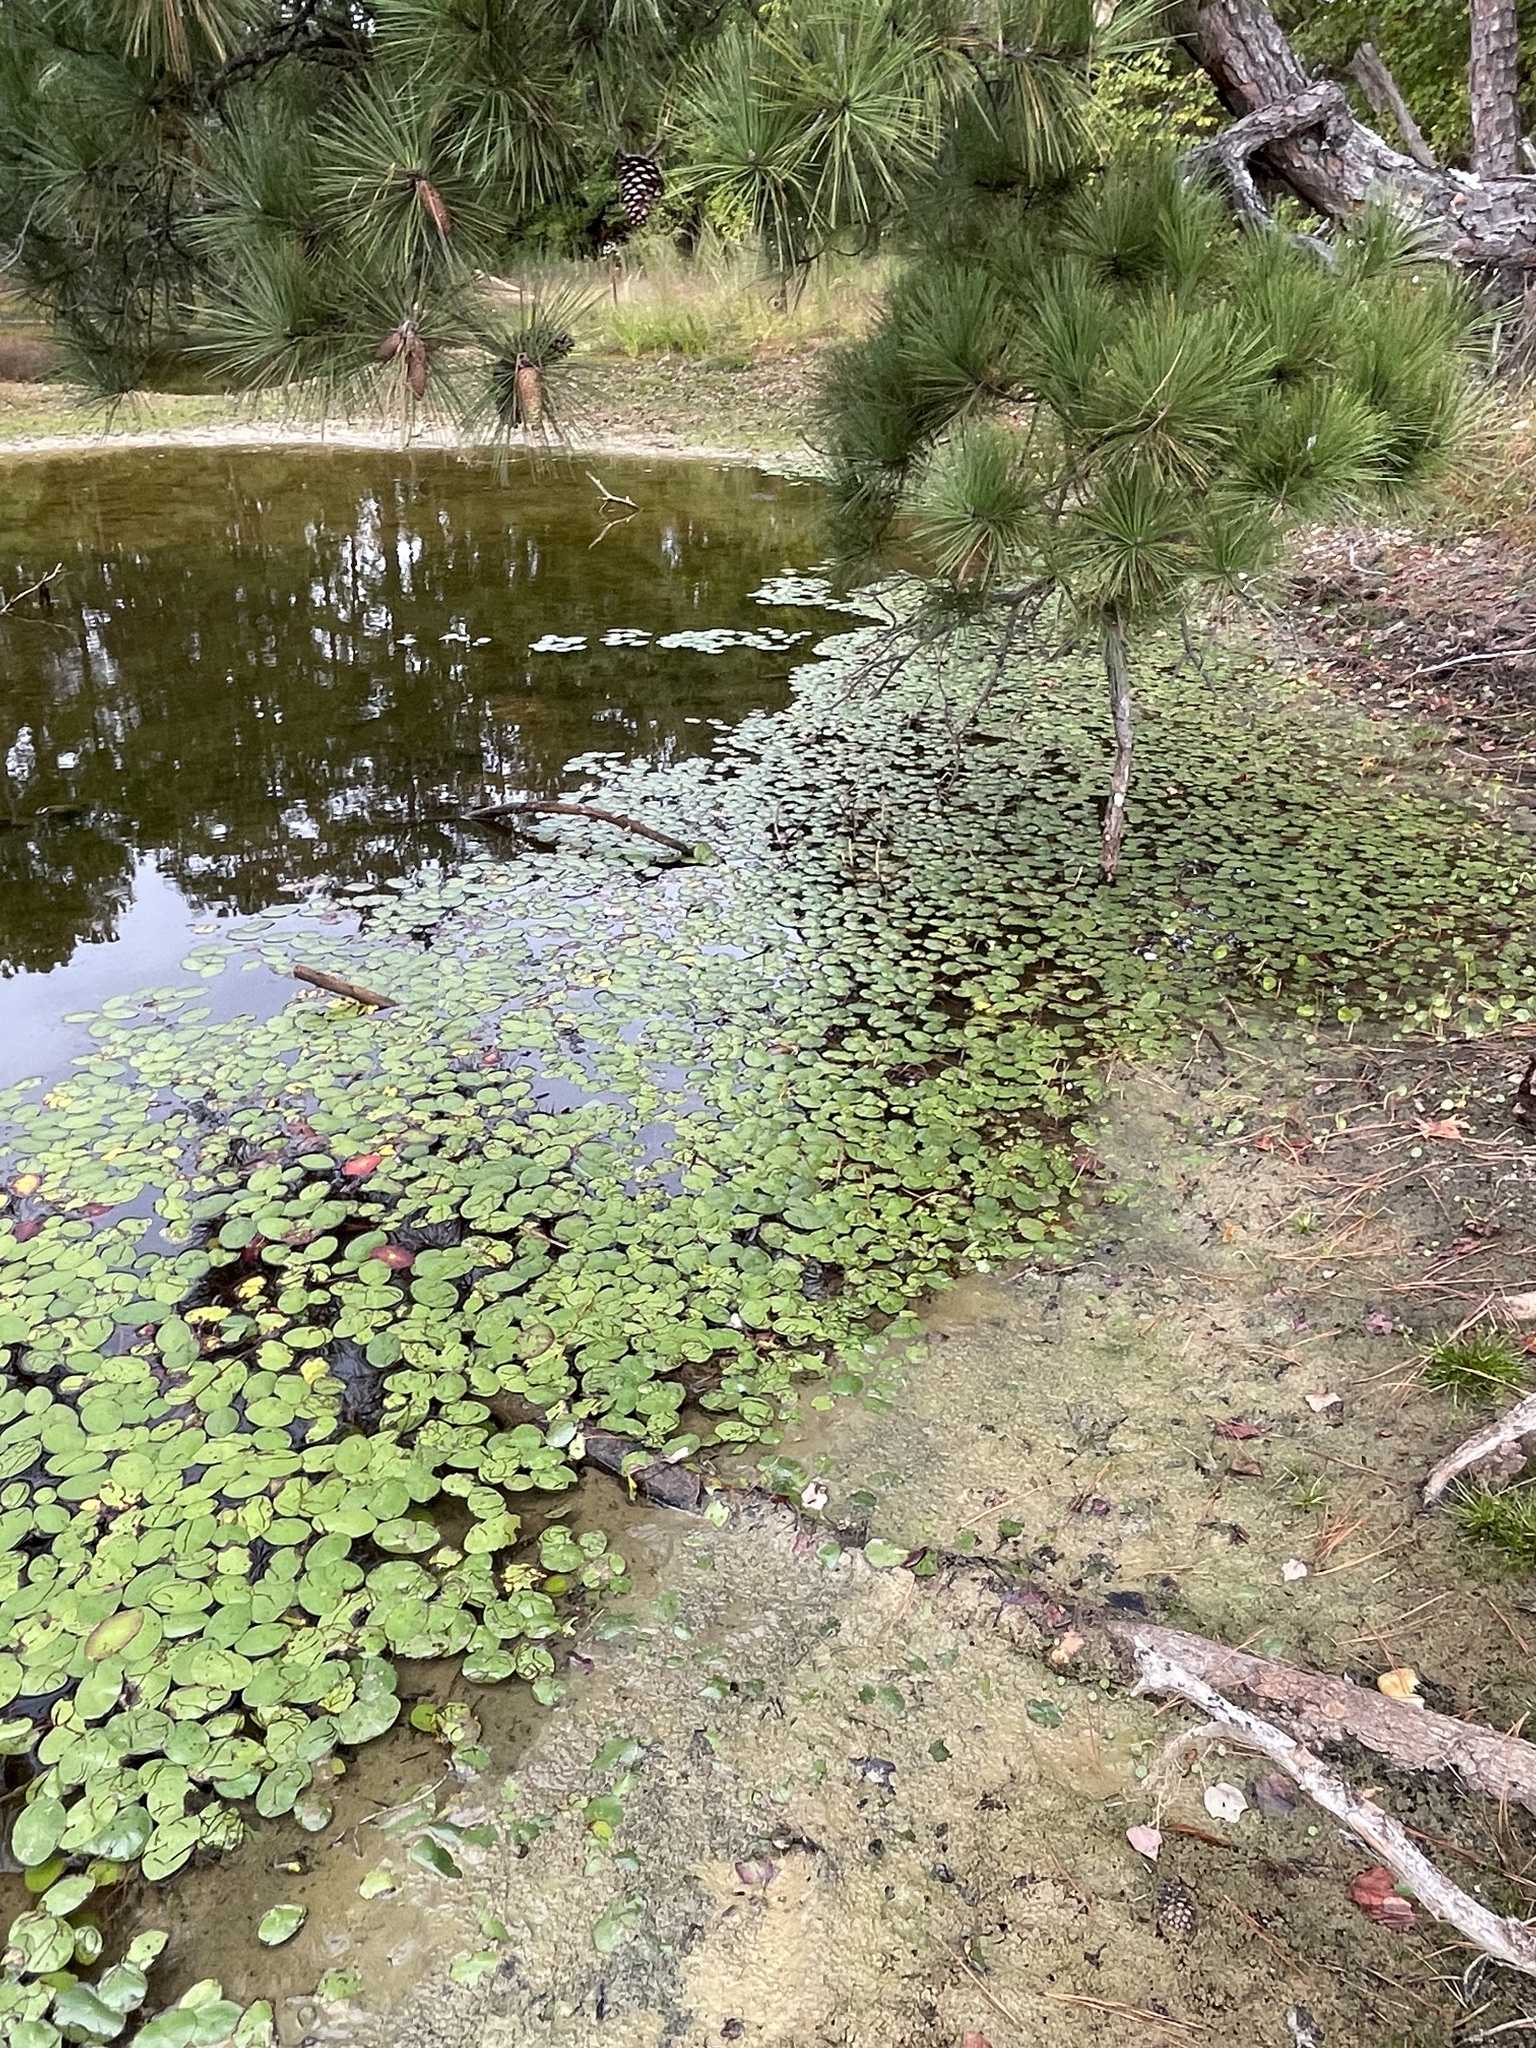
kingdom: Plantae
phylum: Tracheophyta
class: Magnoliopsida
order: Nymphaeales
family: Cabombaceae
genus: Brasenia
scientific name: Brasenia schreberi
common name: Water-shield
